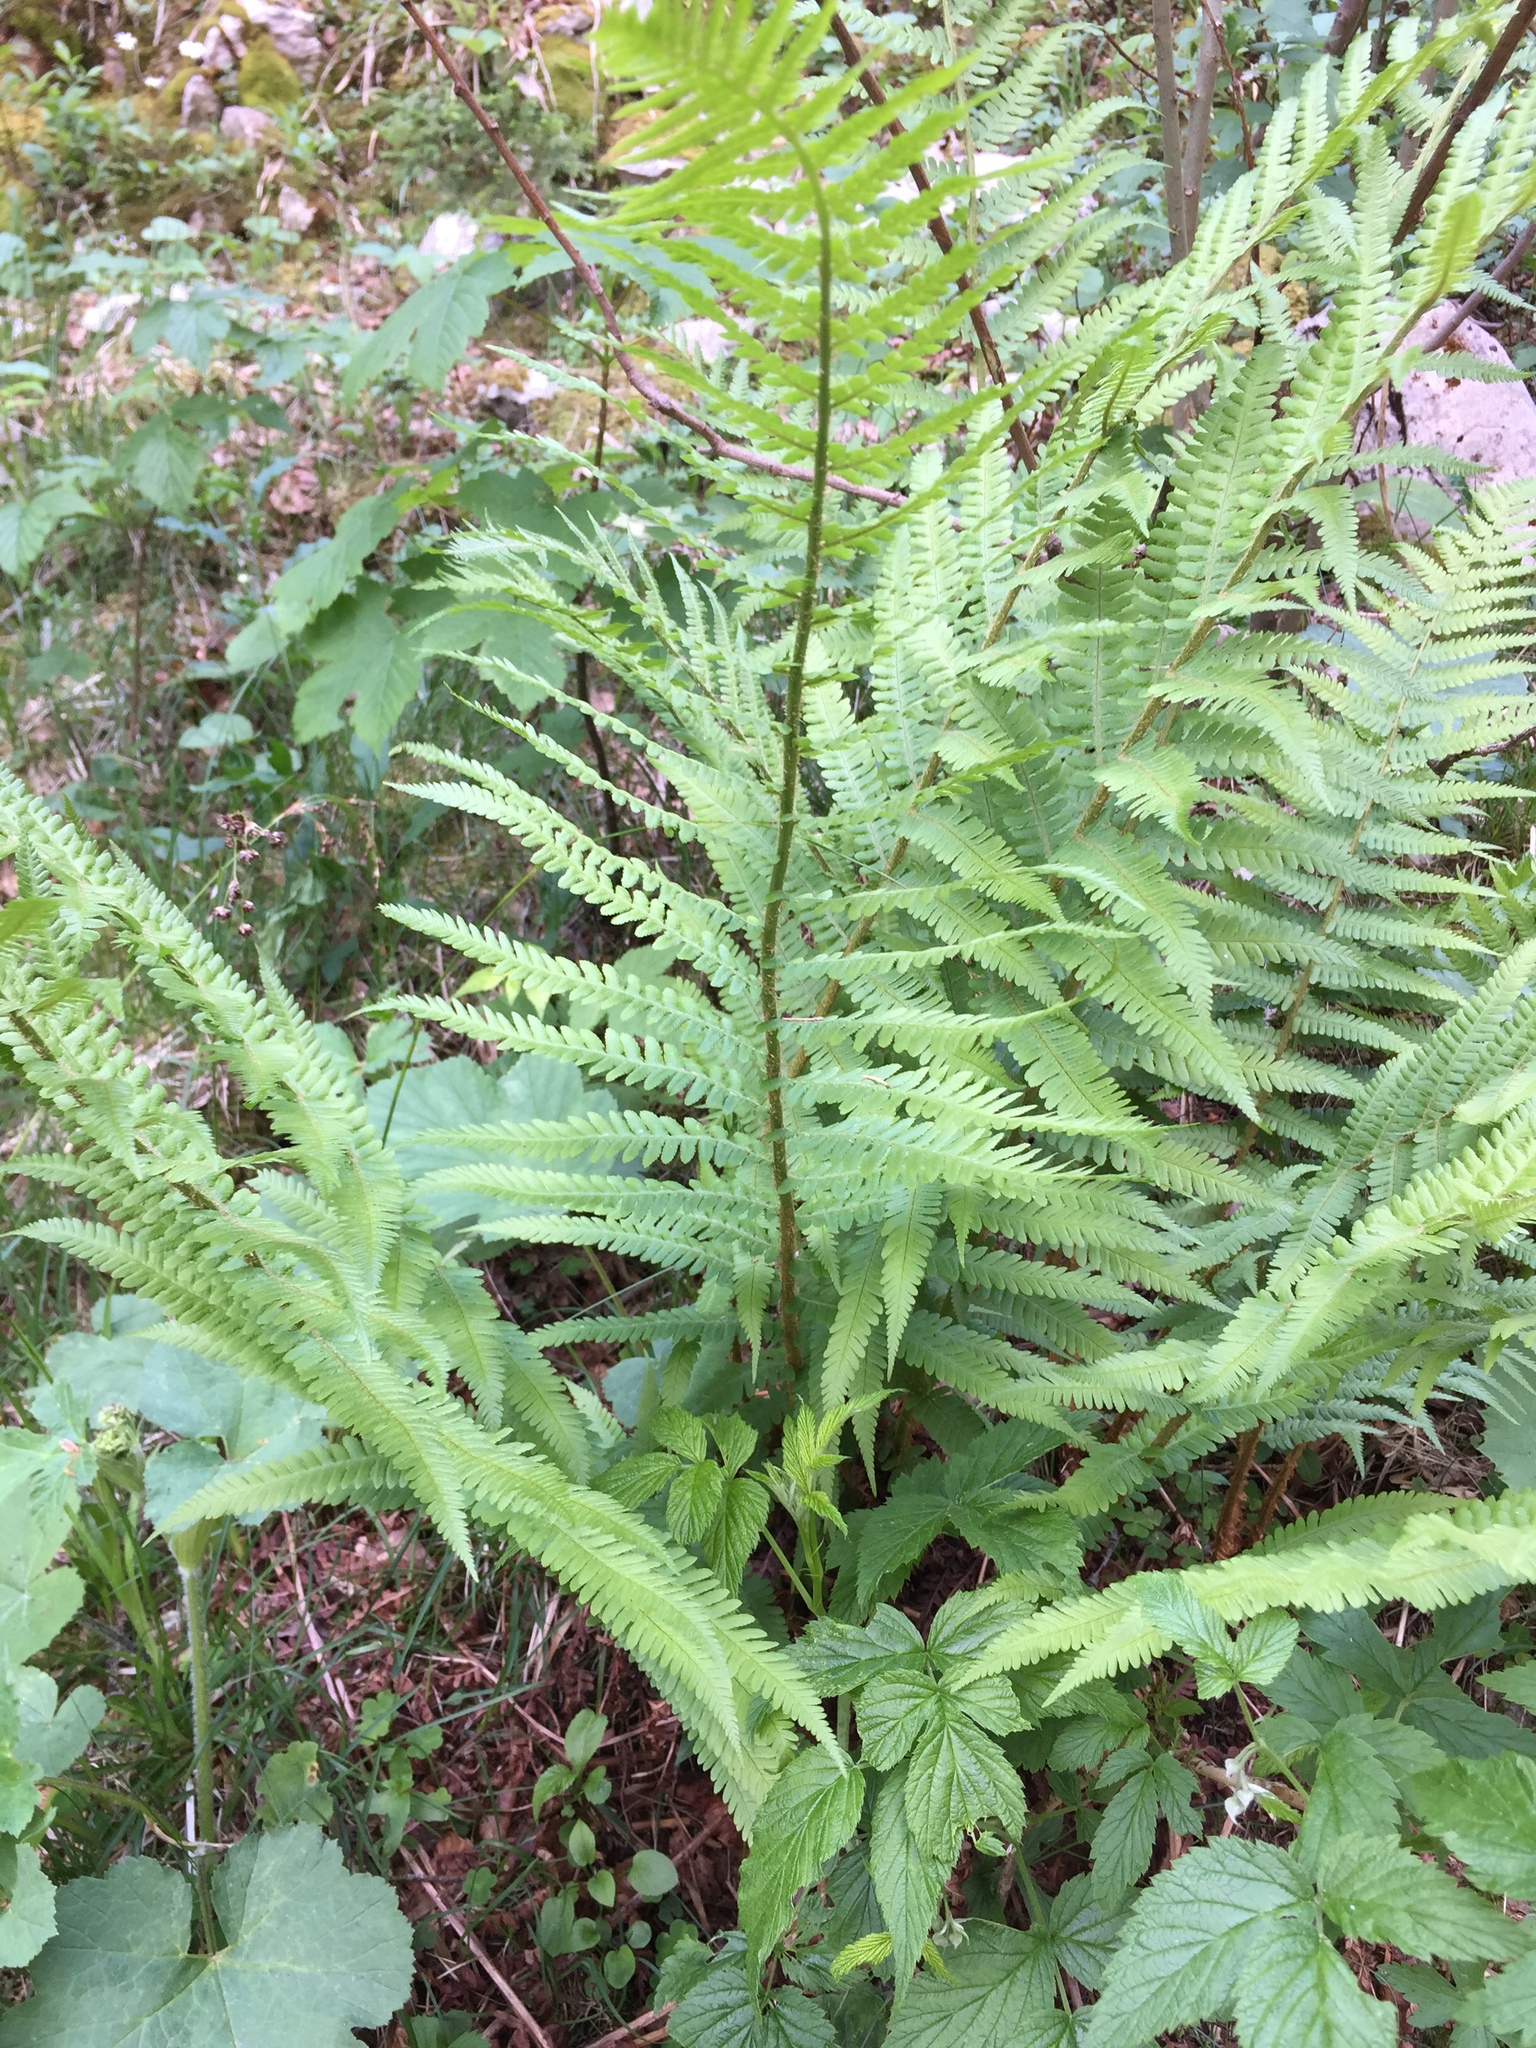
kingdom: Plantae
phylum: Tracheophyta
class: Polypodiopsida
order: Polypodiales
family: Dryopteridaceae
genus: Dryopteris
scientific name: Dryopteris filix-mas
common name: Male fern
